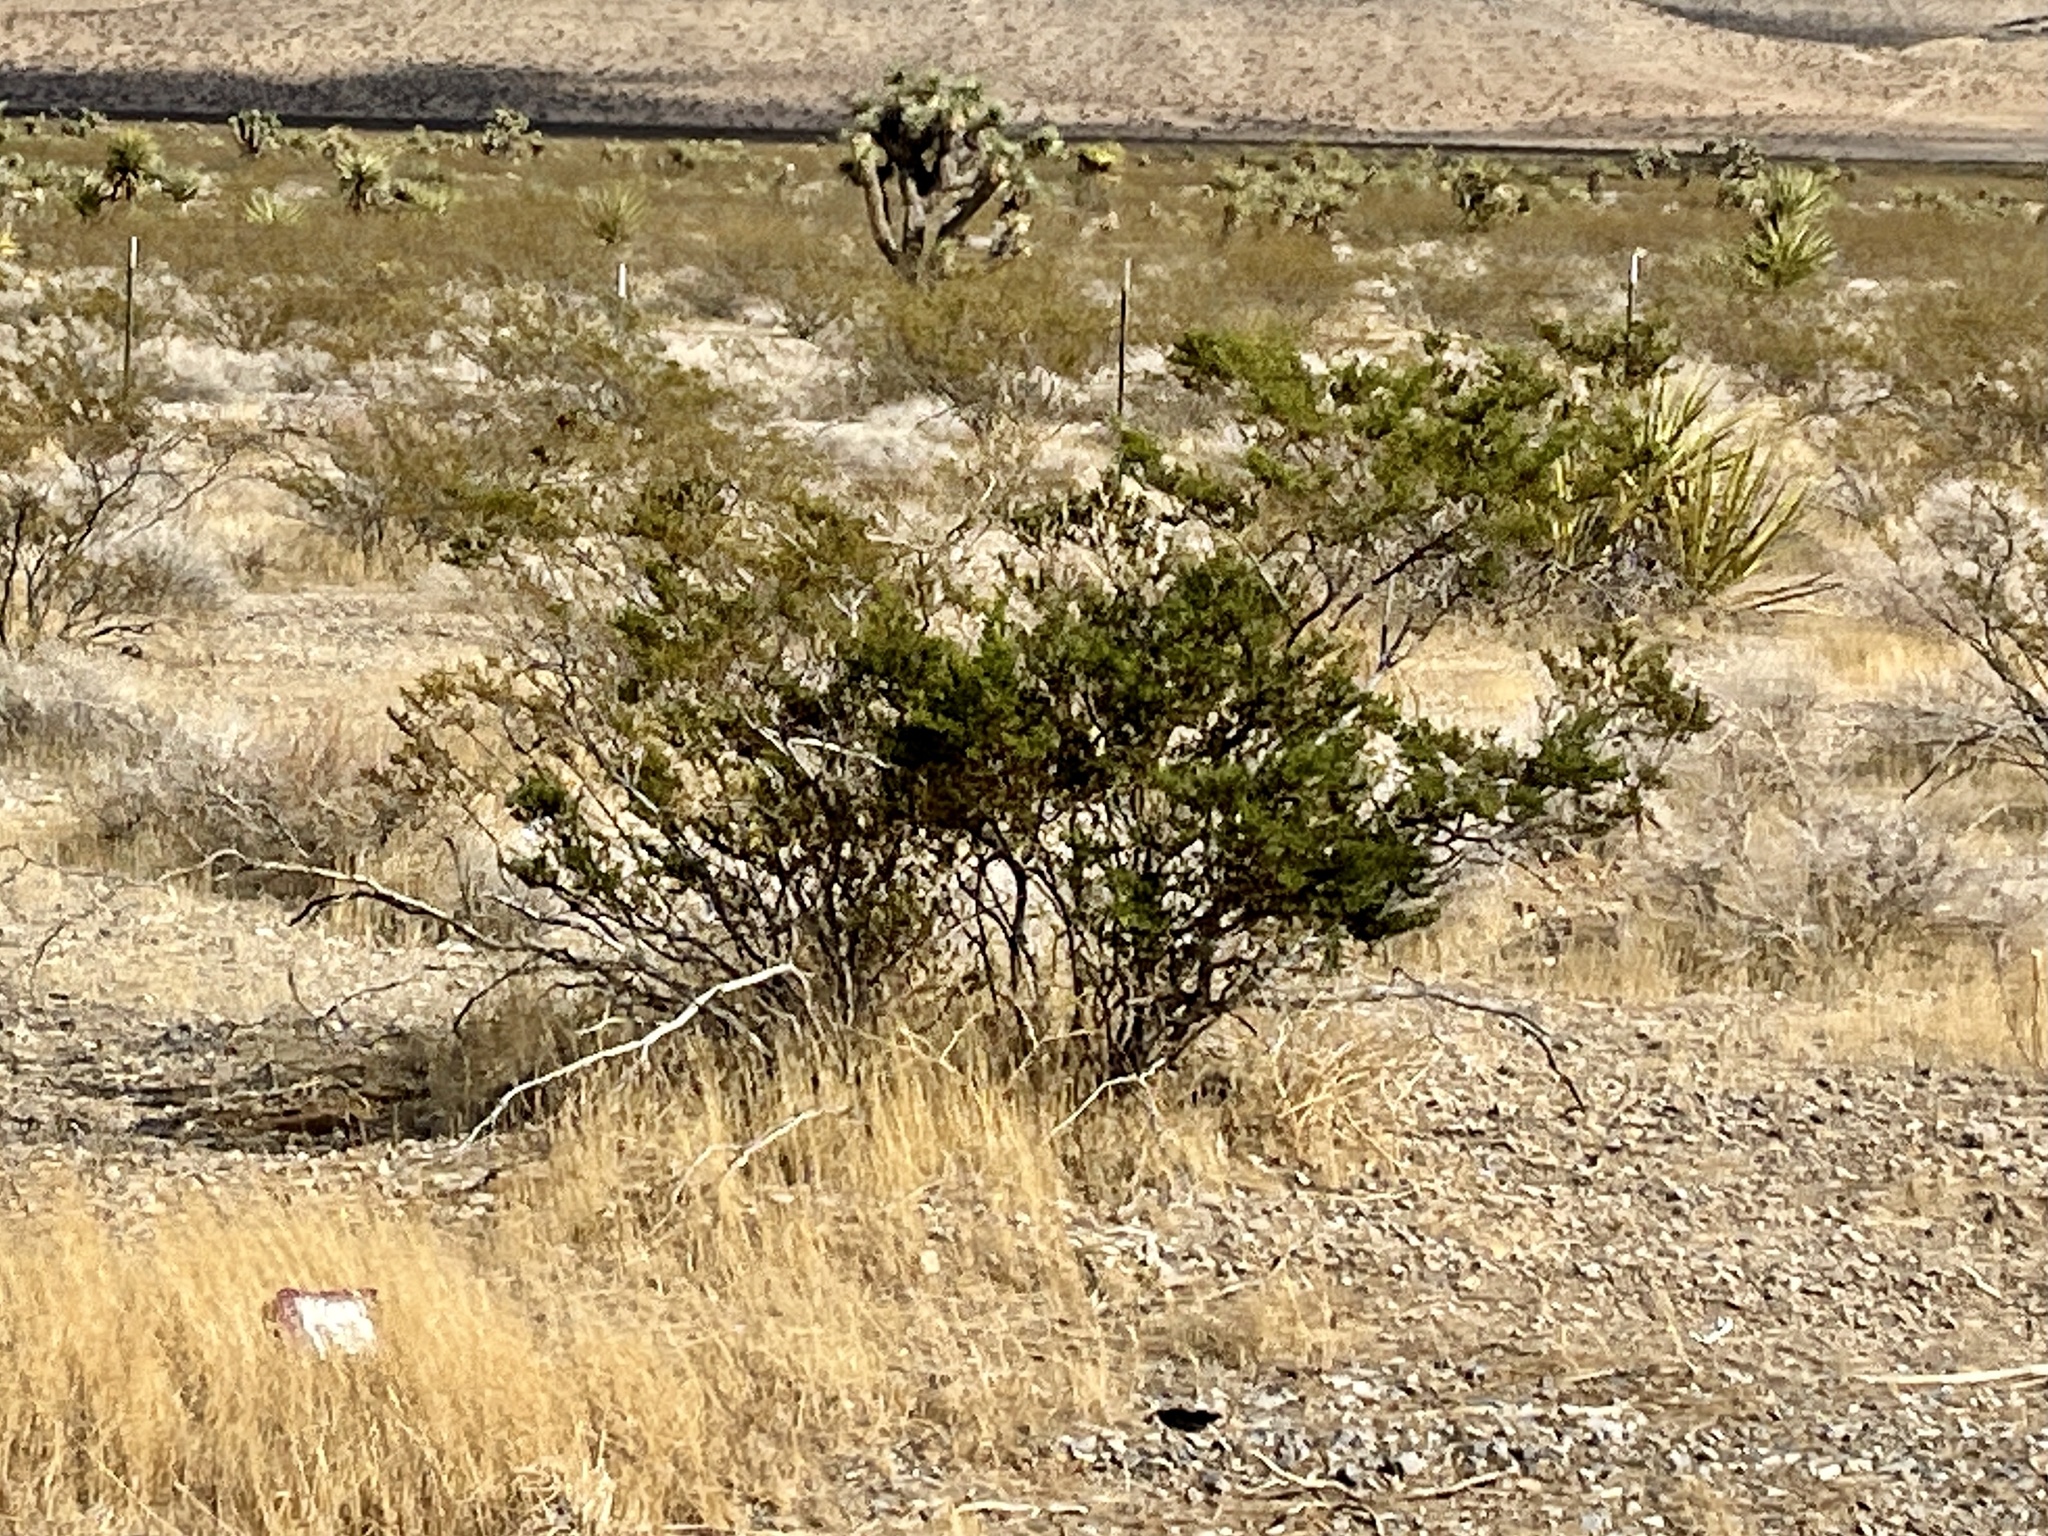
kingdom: Plantae
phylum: Tracheophyta
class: Magnoliopsida
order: Zygophyllales
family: Zygophyllaceae
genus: Larrea
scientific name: Larrea tridentata
